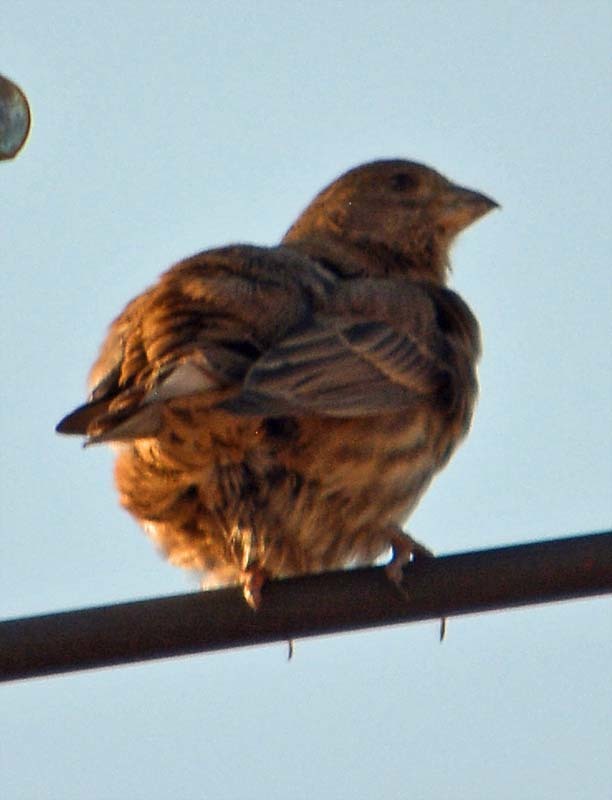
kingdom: Animalia
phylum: Chordata
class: Aves
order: Passeriformes
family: Fringillidae
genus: Haemorhous
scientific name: Haemorhous mexicanus
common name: House finch
